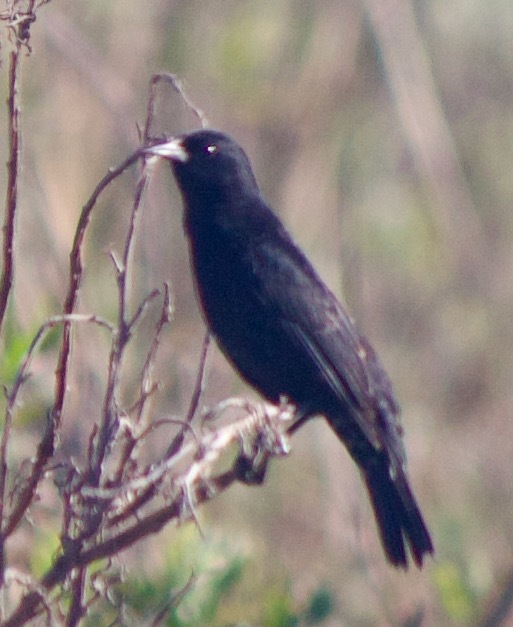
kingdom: Animalia
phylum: Chordata
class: Aves
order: Passeriformes
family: Icteridae
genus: Curaeus
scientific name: Curaeus curaeus
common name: Austral blackbird
